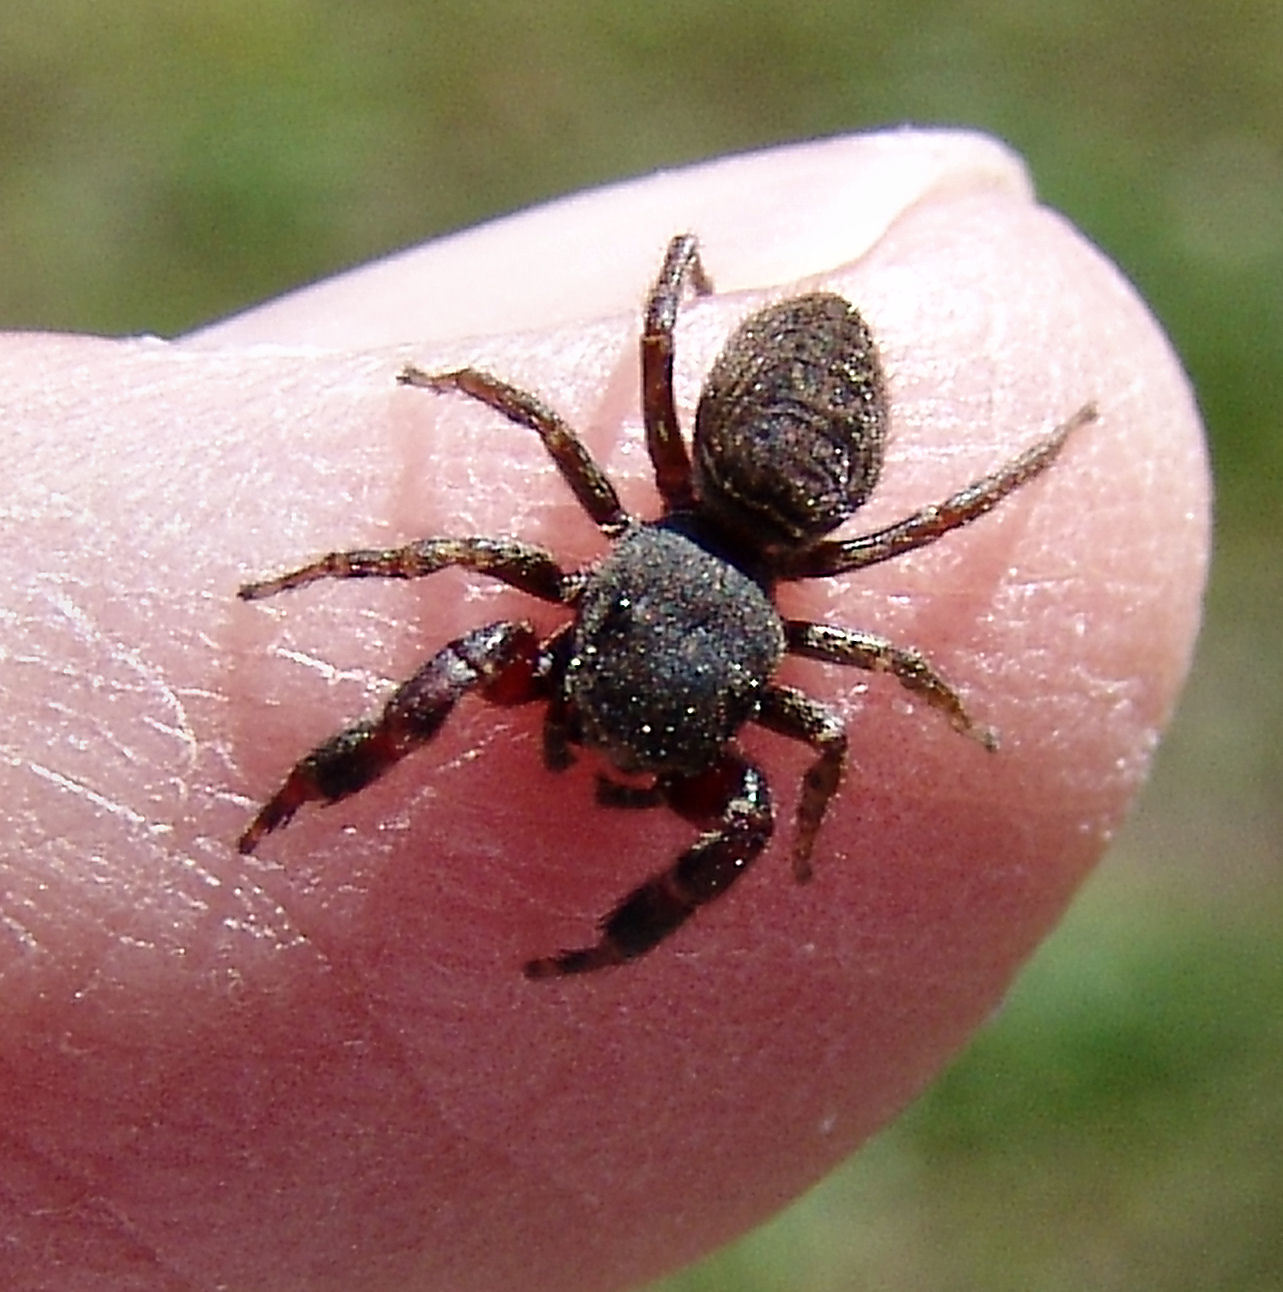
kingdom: Animalia
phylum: Arthropoda
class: Arachnida
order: Araneae
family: Salticidae
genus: Ghelna
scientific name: Ghelna barrowsi
